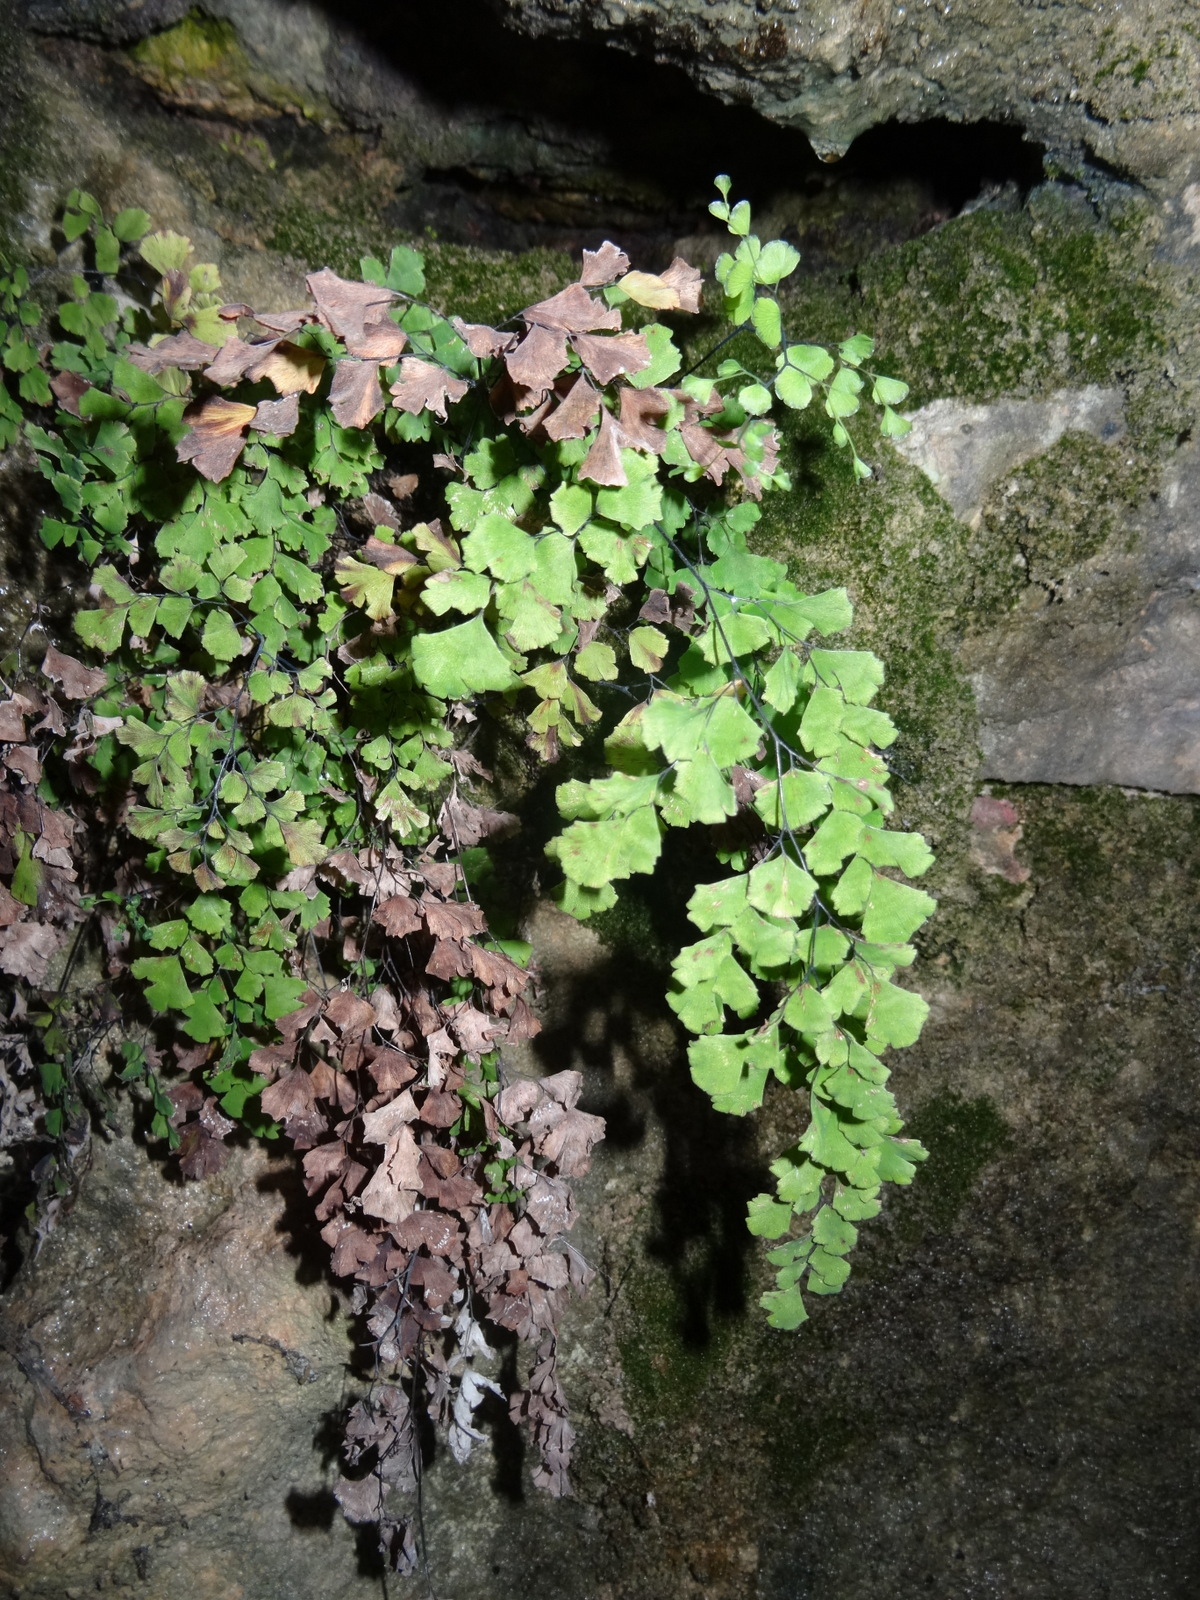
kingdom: Plantae
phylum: Tracheophyta
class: Polypodiopsida
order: Polypodiales
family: Pteridaceae
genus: Adiantum
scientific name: Adiantum capillus-veneris
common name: Maidenhair fern
